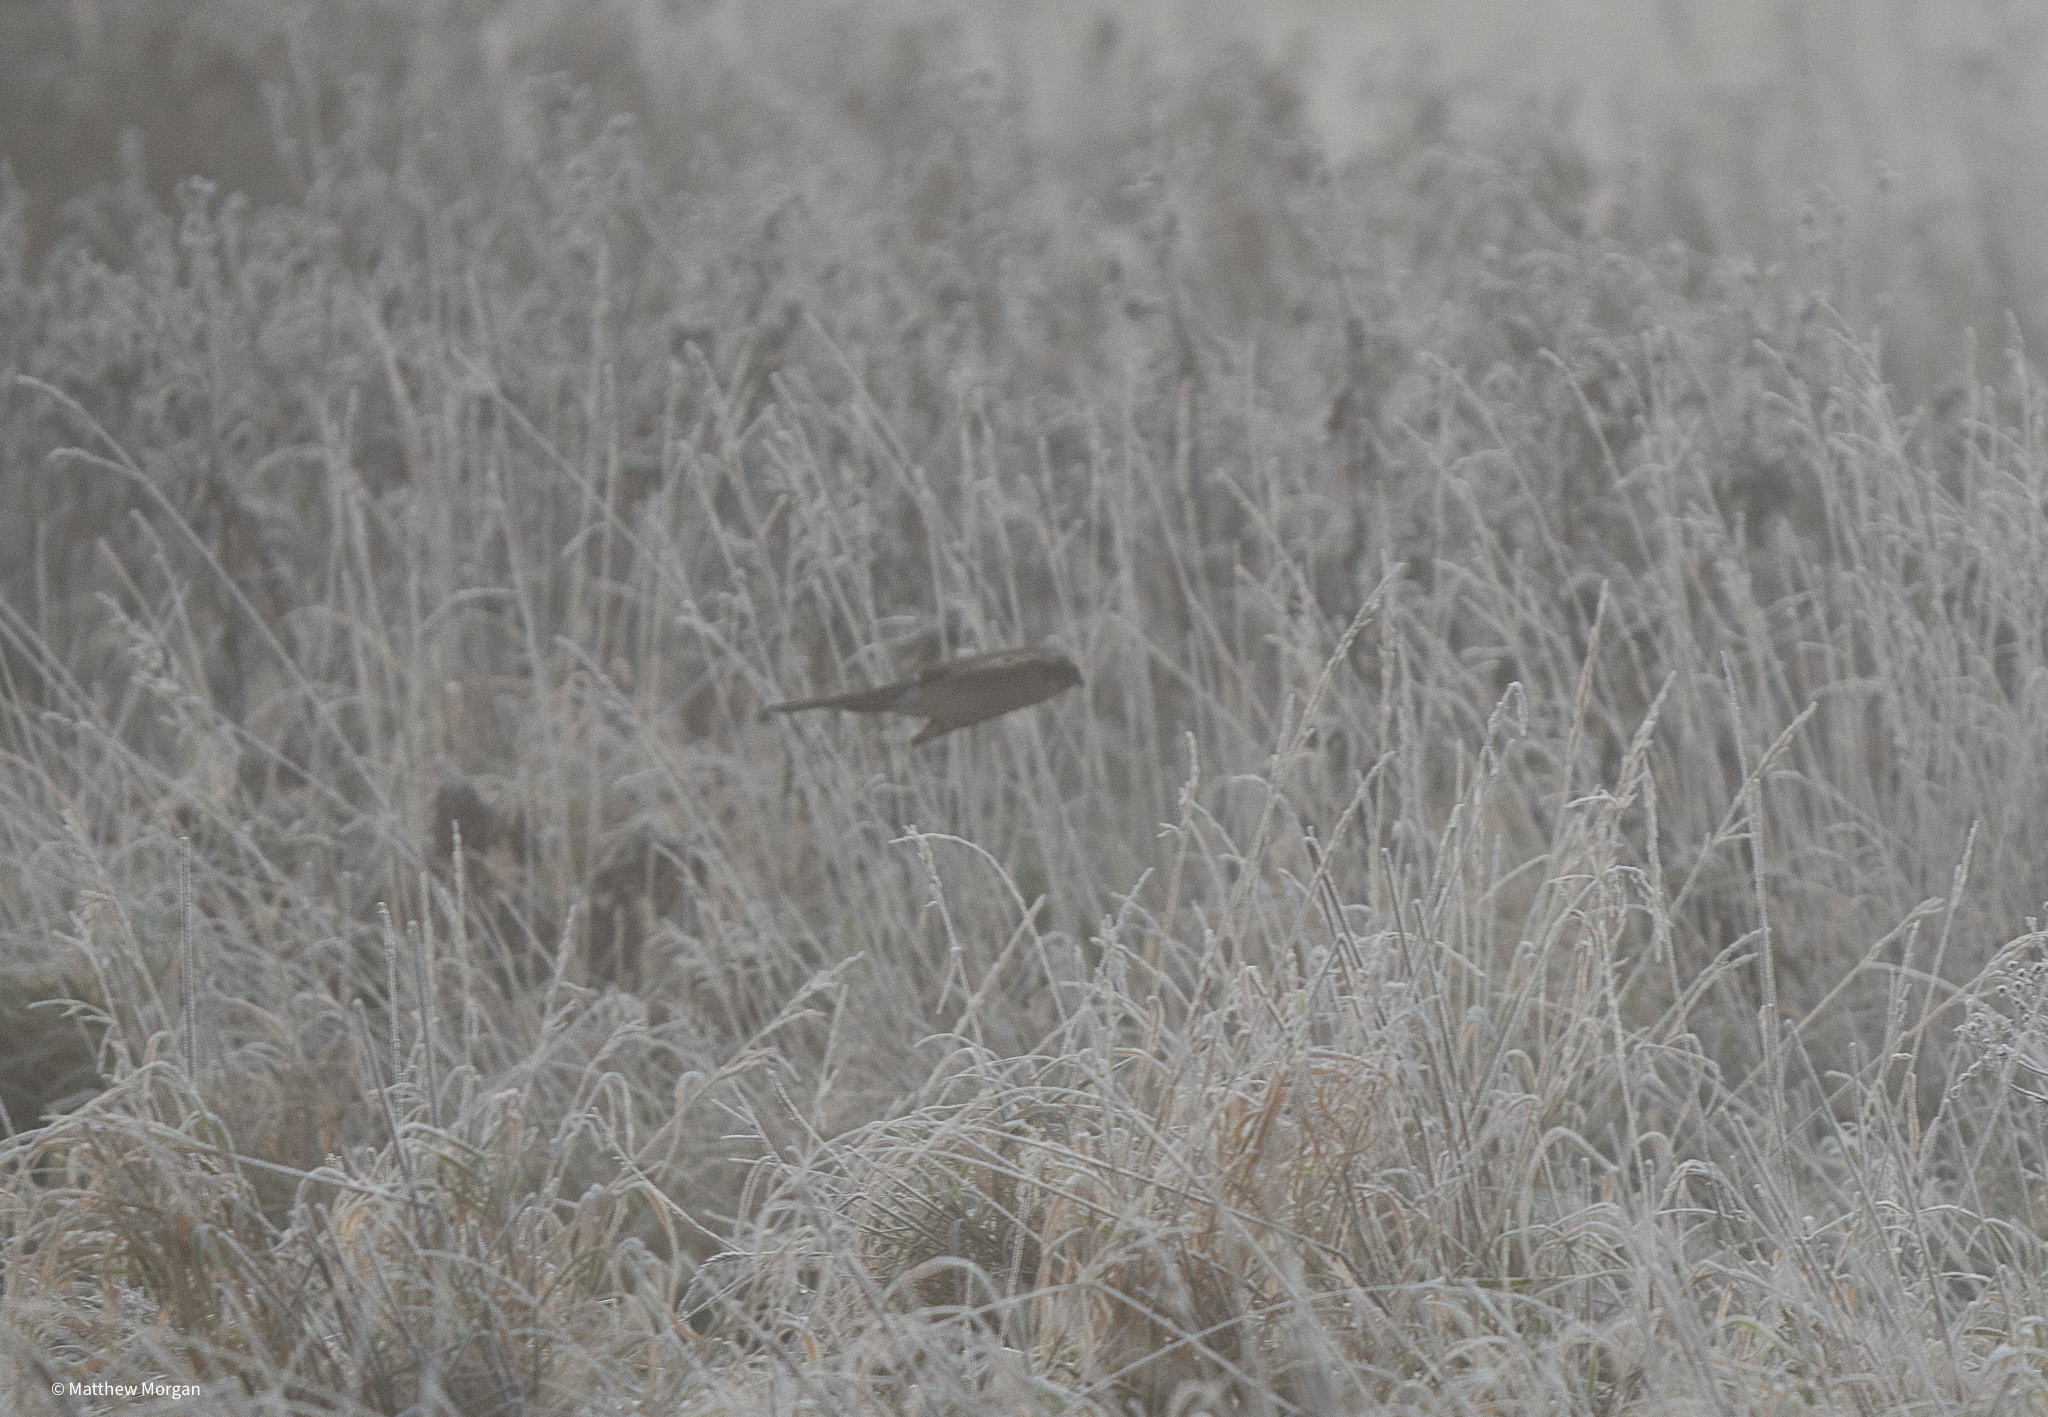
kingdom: Animalia
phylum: Chordata
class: Aves
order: Accipitriformes
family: Accipitridae
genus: Accipiter
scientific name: Accipiter nisus
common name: Eurasian sparrowhawk
